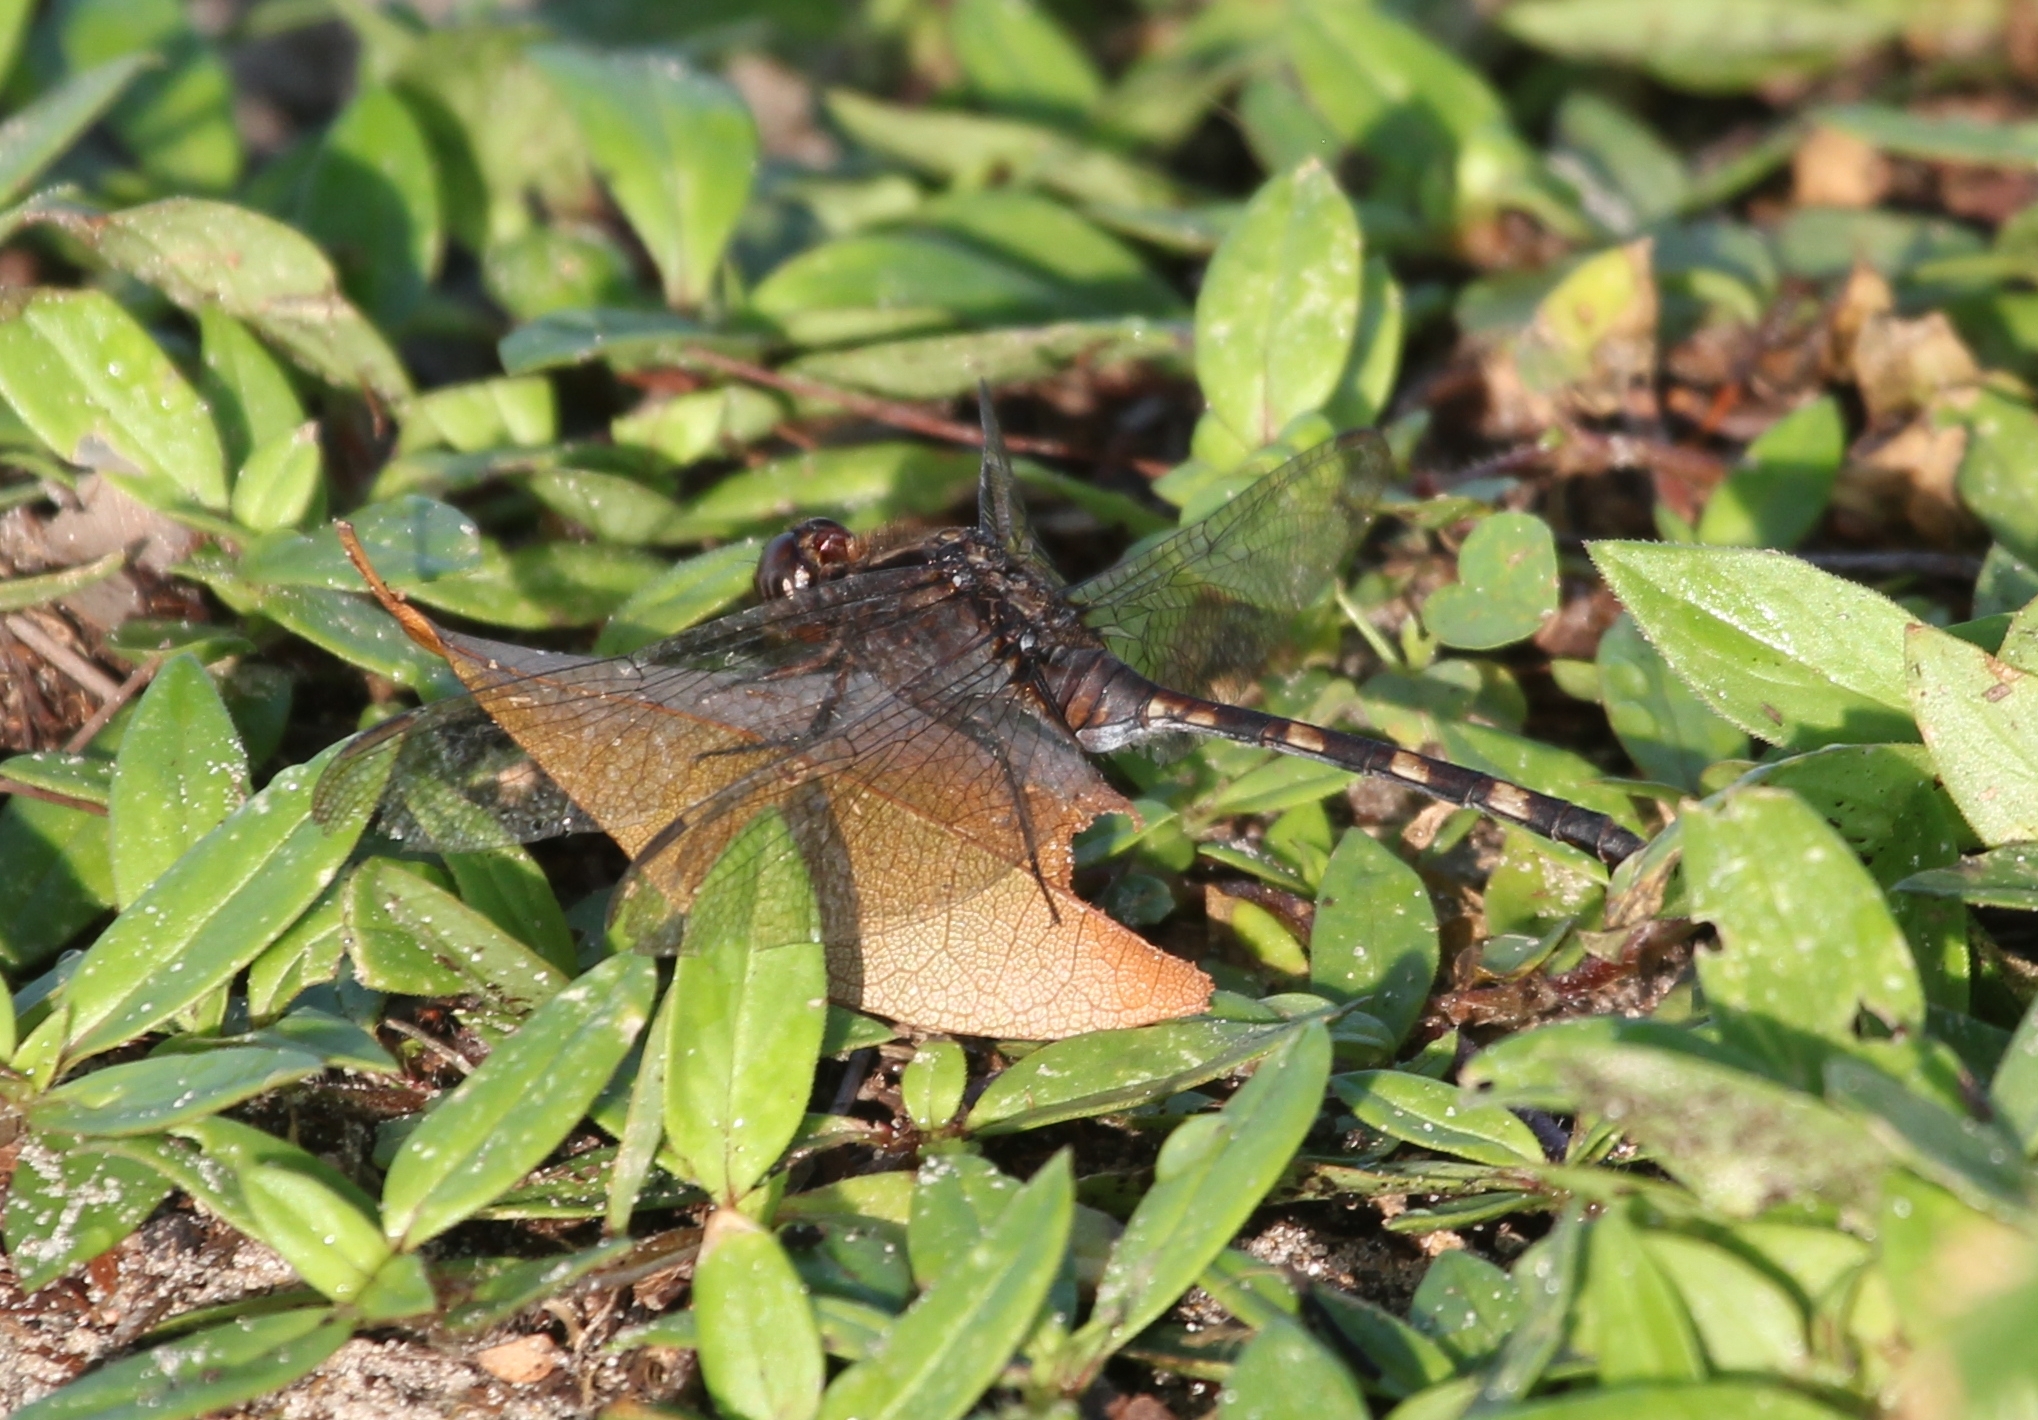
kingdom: Animalia
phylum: Arthropoda
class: Insecta
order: Odonata
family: Libellulidae
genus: Erythemis
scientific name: Erythemis plebeja
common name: Pin-tailed pondhawk
